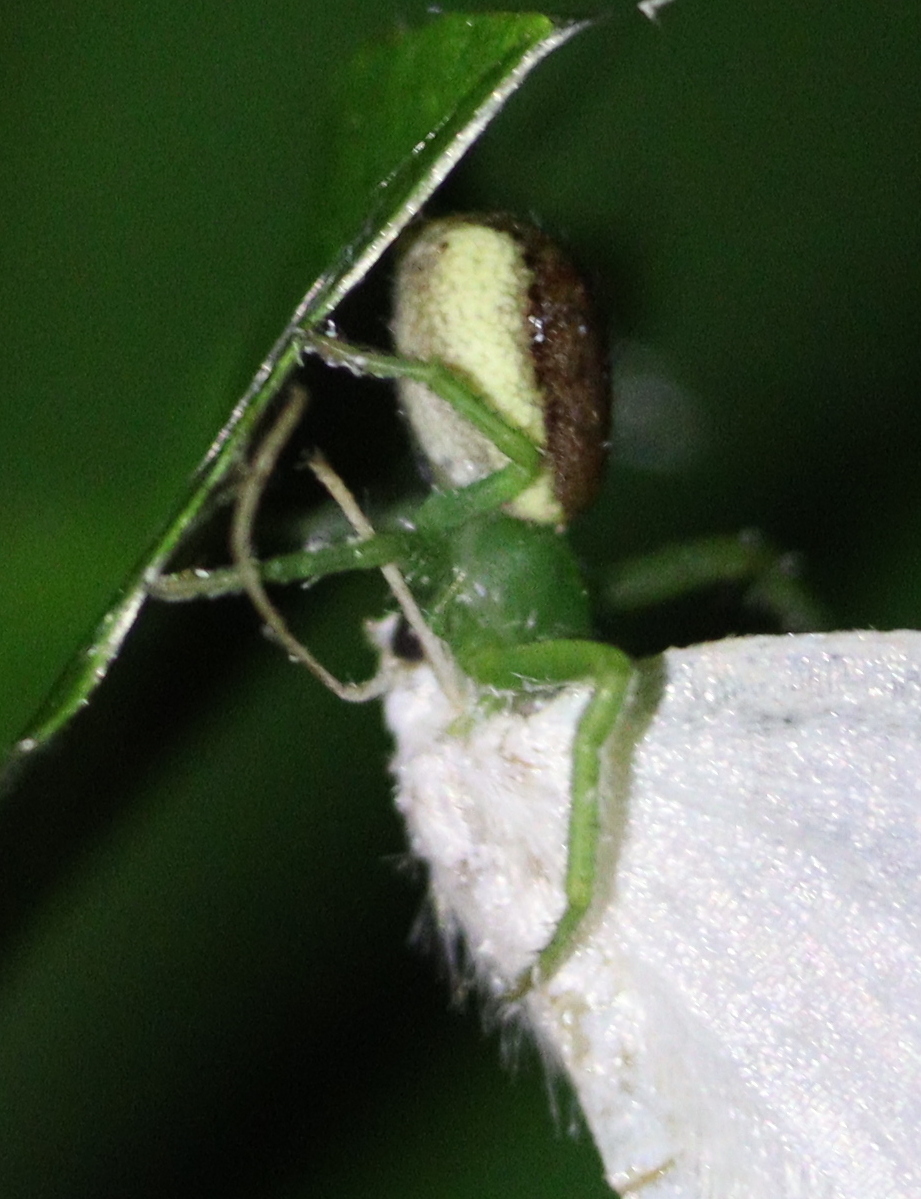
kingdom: Animalia
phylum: Arthropoda
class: Arachnida
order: Araneae
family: Thomisidae
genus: Diaea
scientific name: Diaea dorsata
